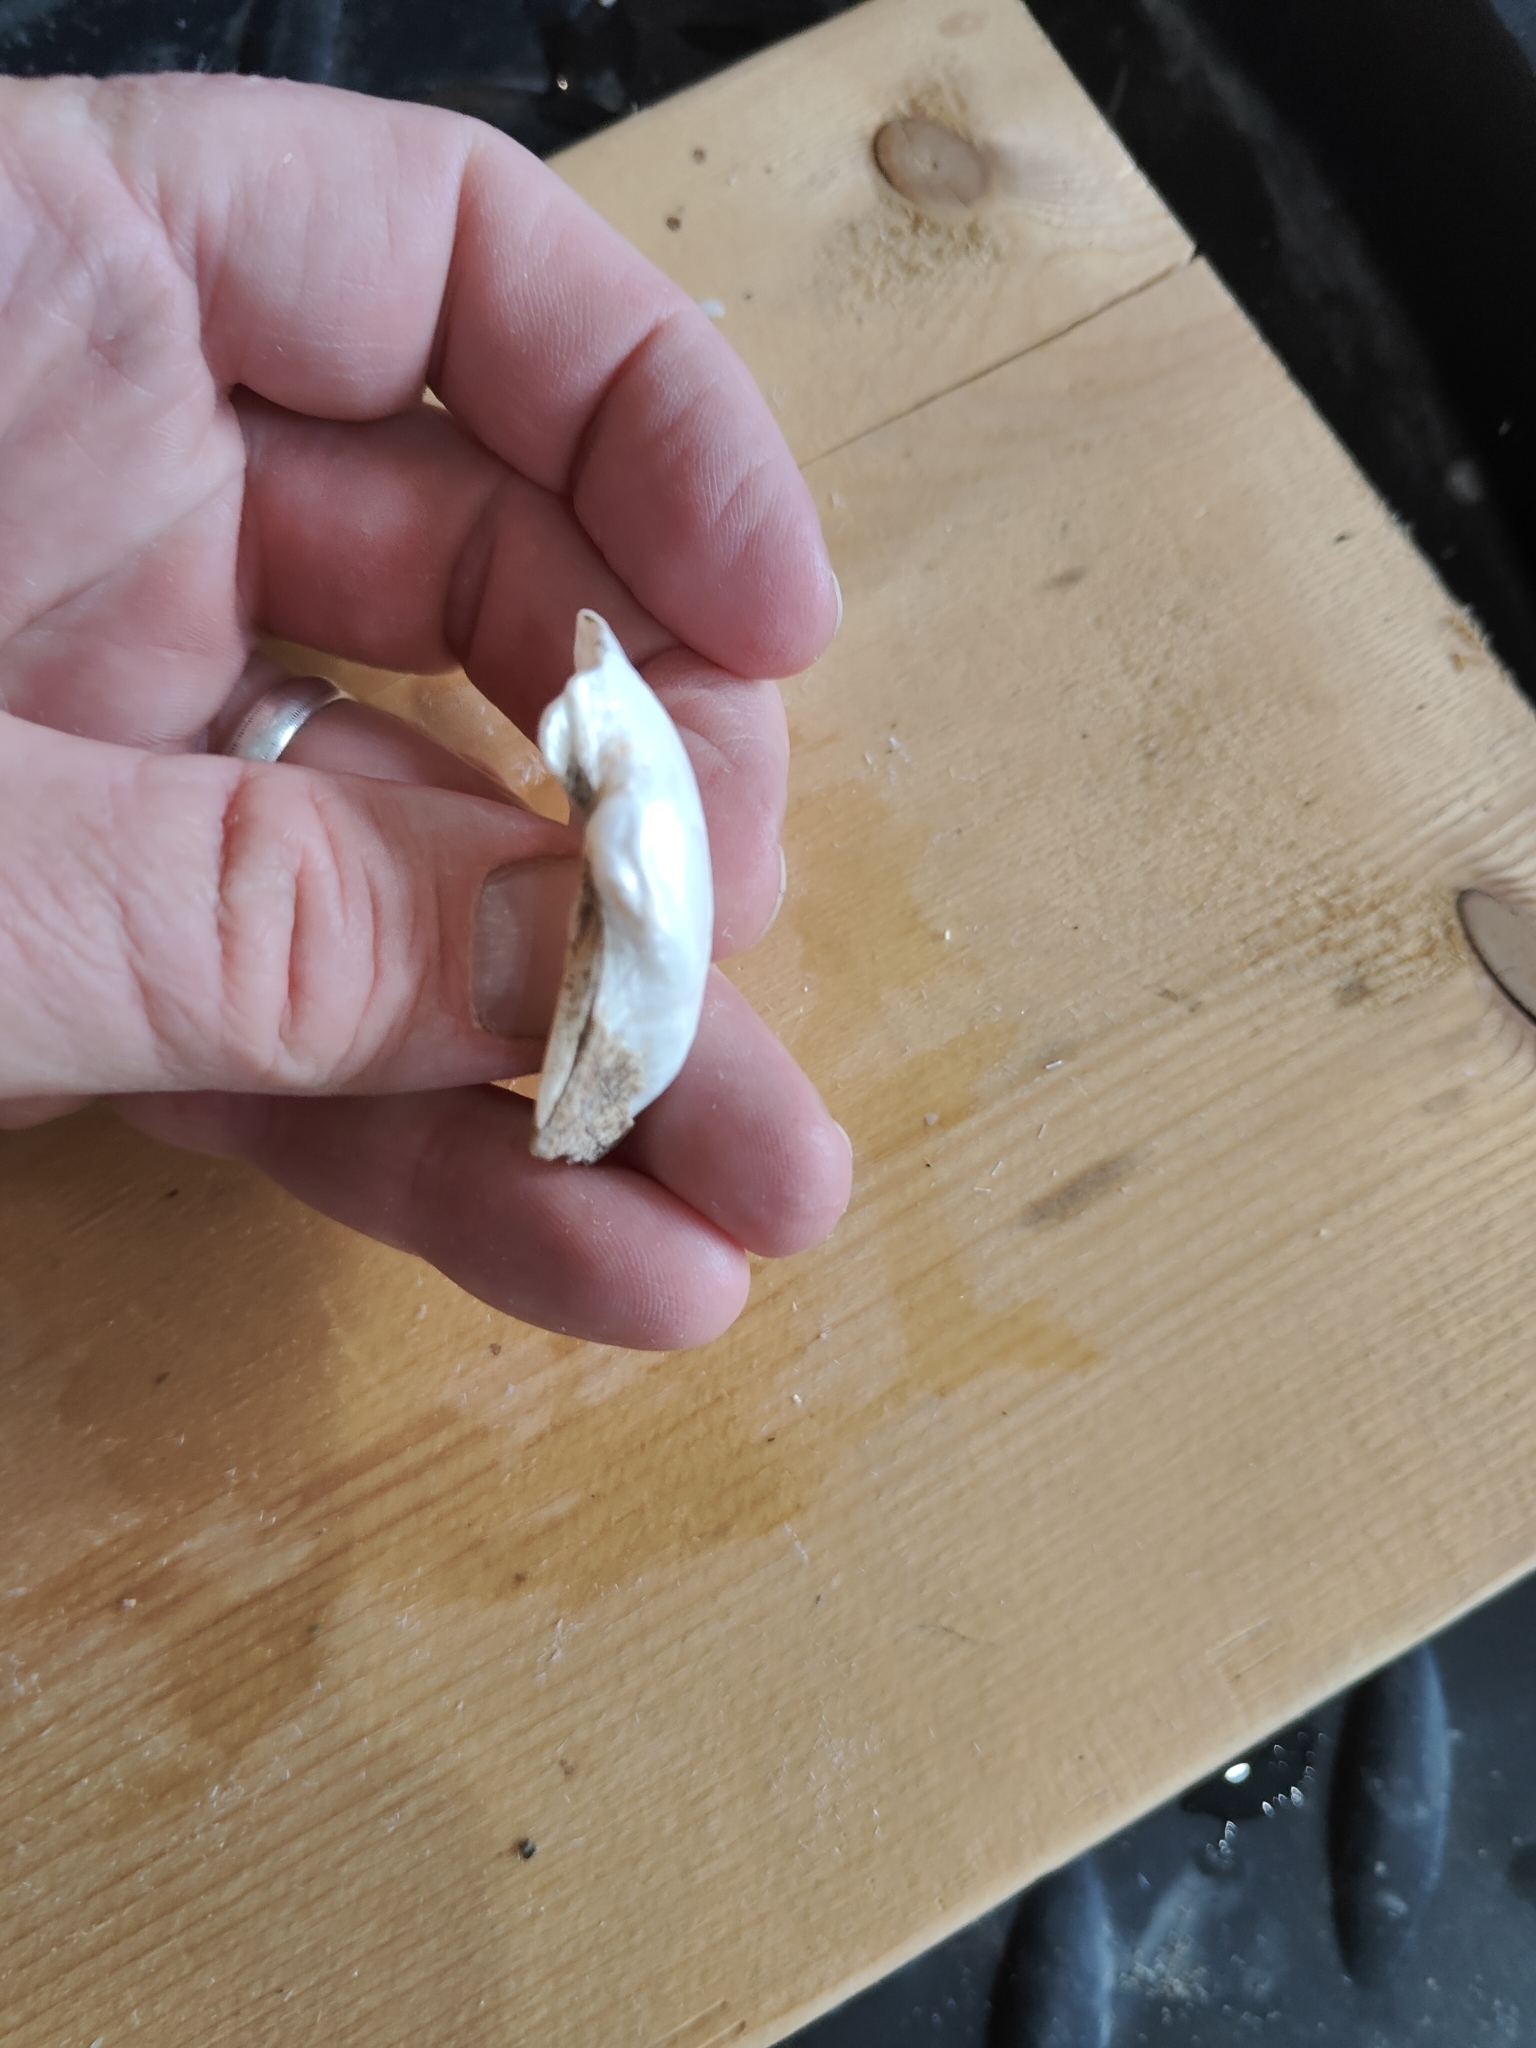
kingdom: Animalia
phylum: Mollusca
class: Bivalvia
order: Unionida
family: Unionidae
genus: Alasmidonta
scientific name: Alasmidonta marginata
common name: Elktoe
